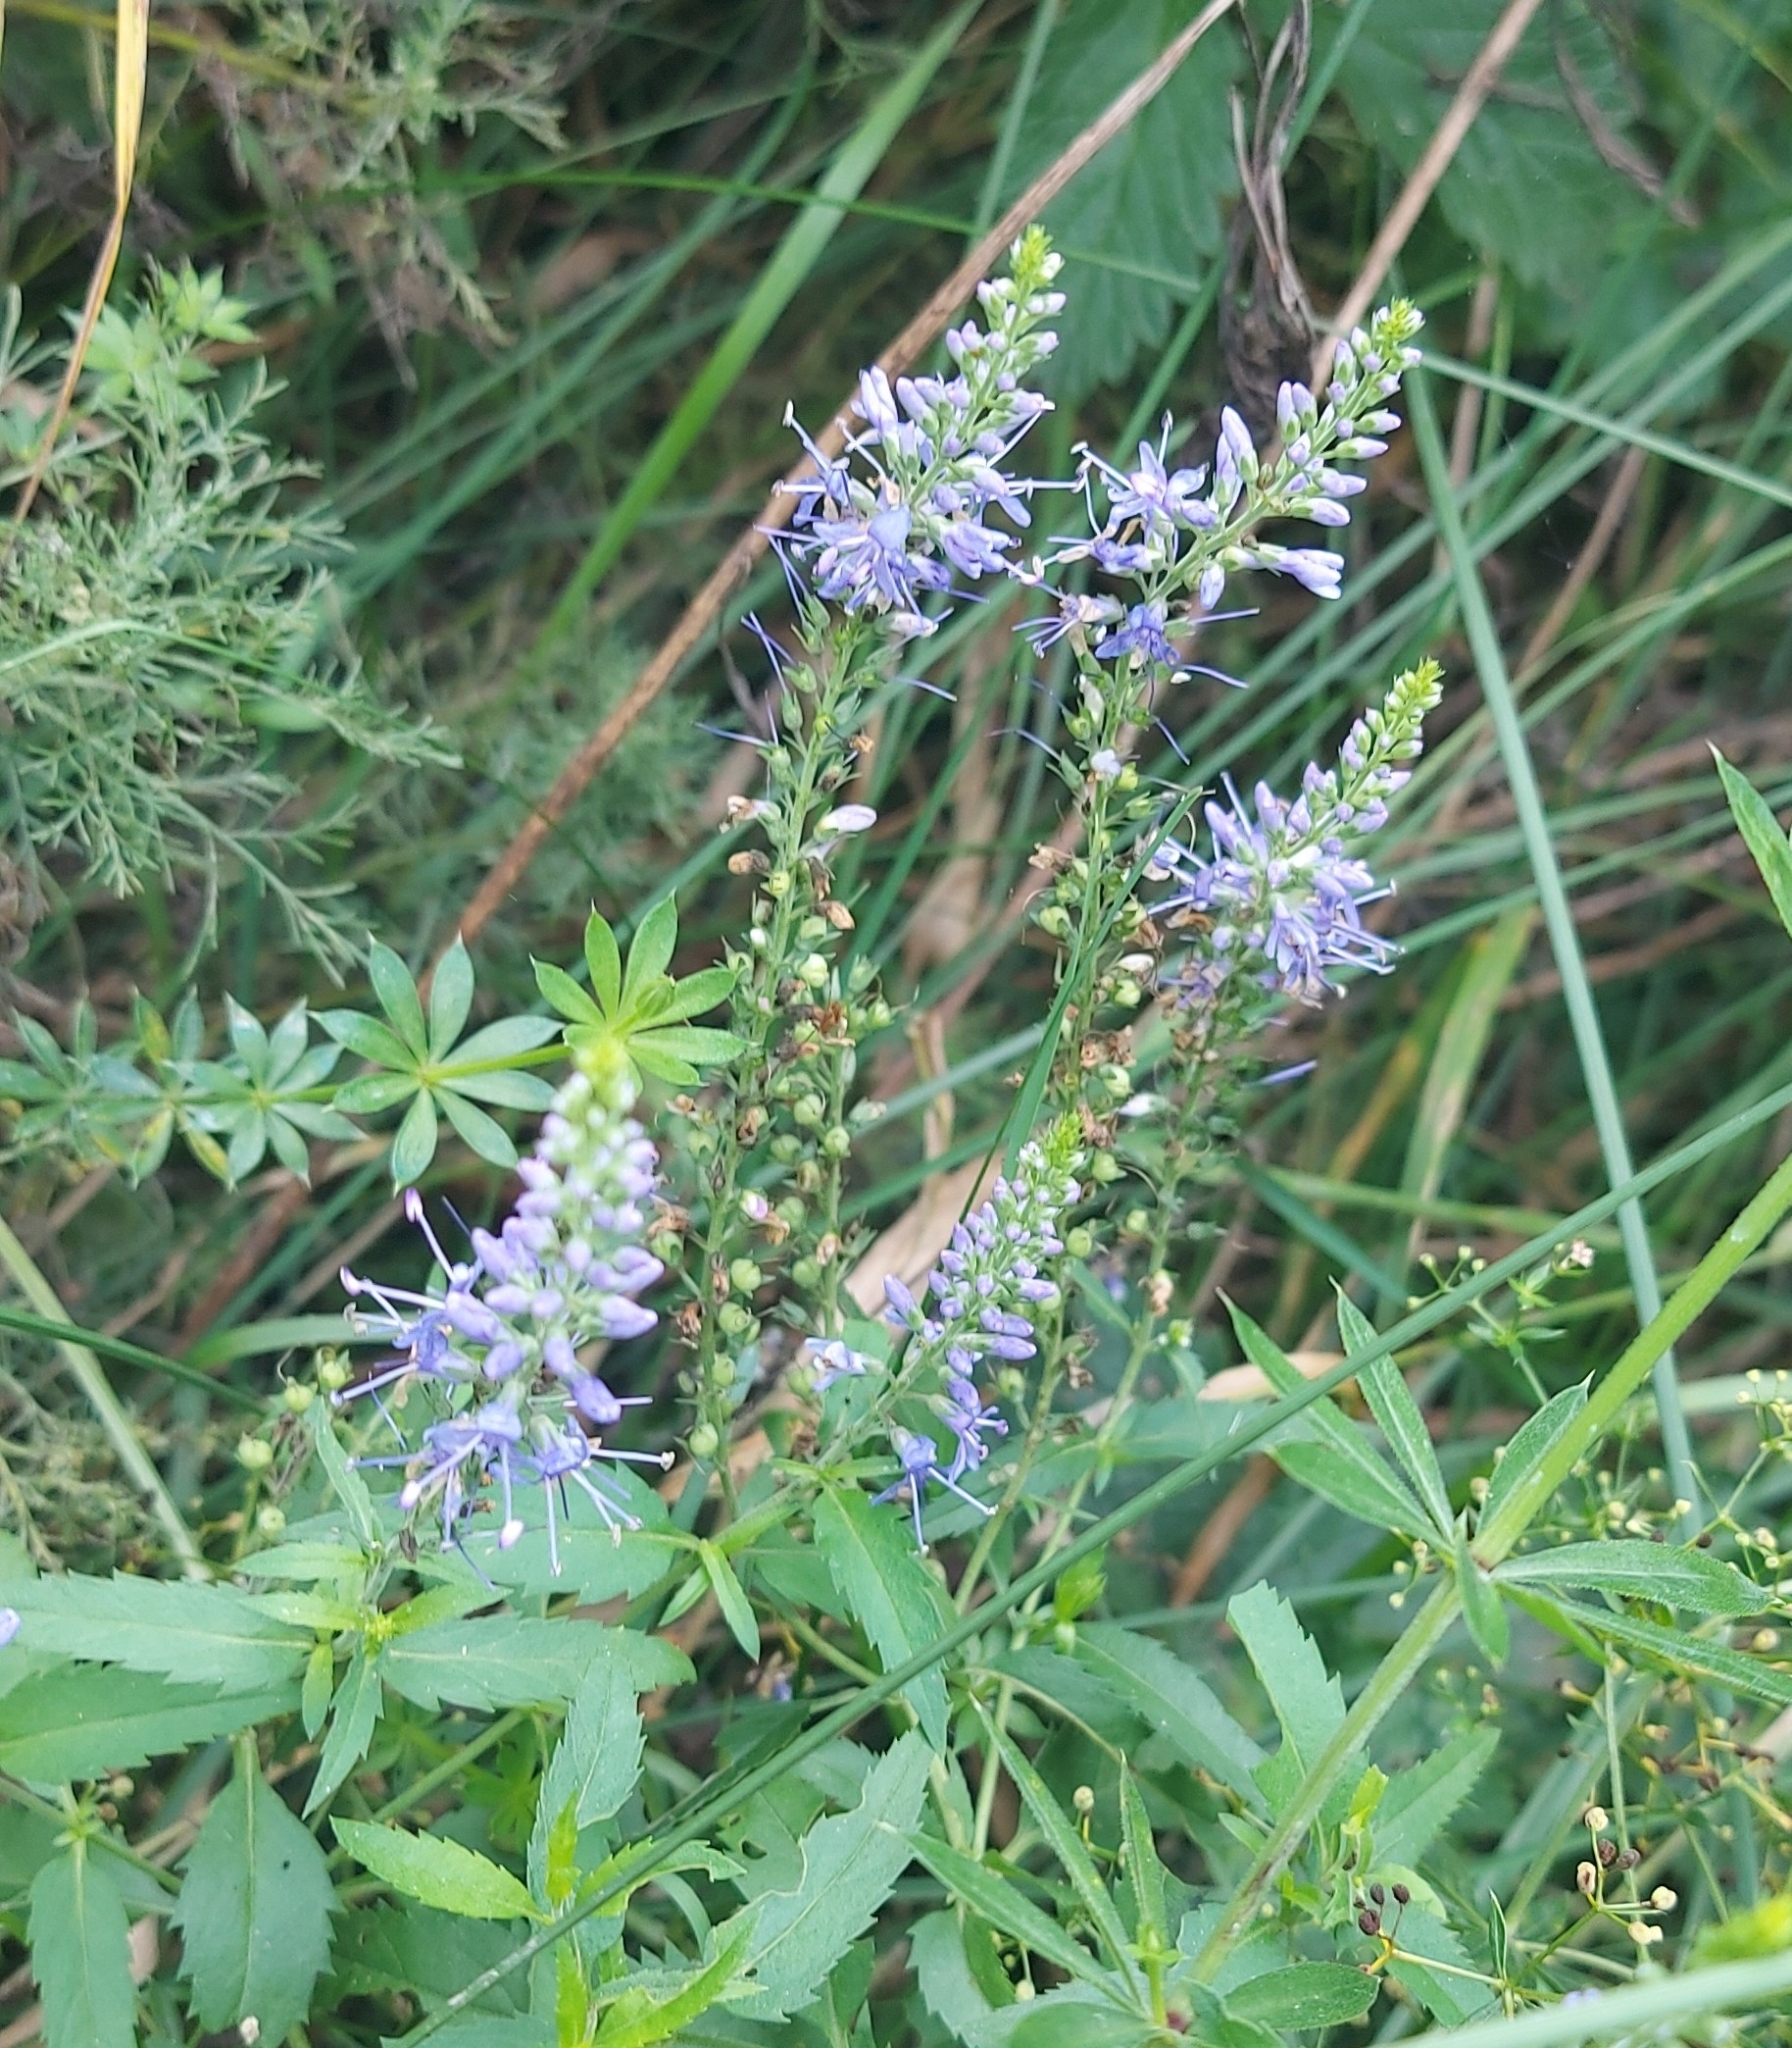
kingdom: Plantae
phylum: Tracheophyta
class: Magnoliopsida
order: Lamiales
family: Plantaginaceae
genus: Veronica
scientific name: Veronica longifolia
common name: Garden speedwell
